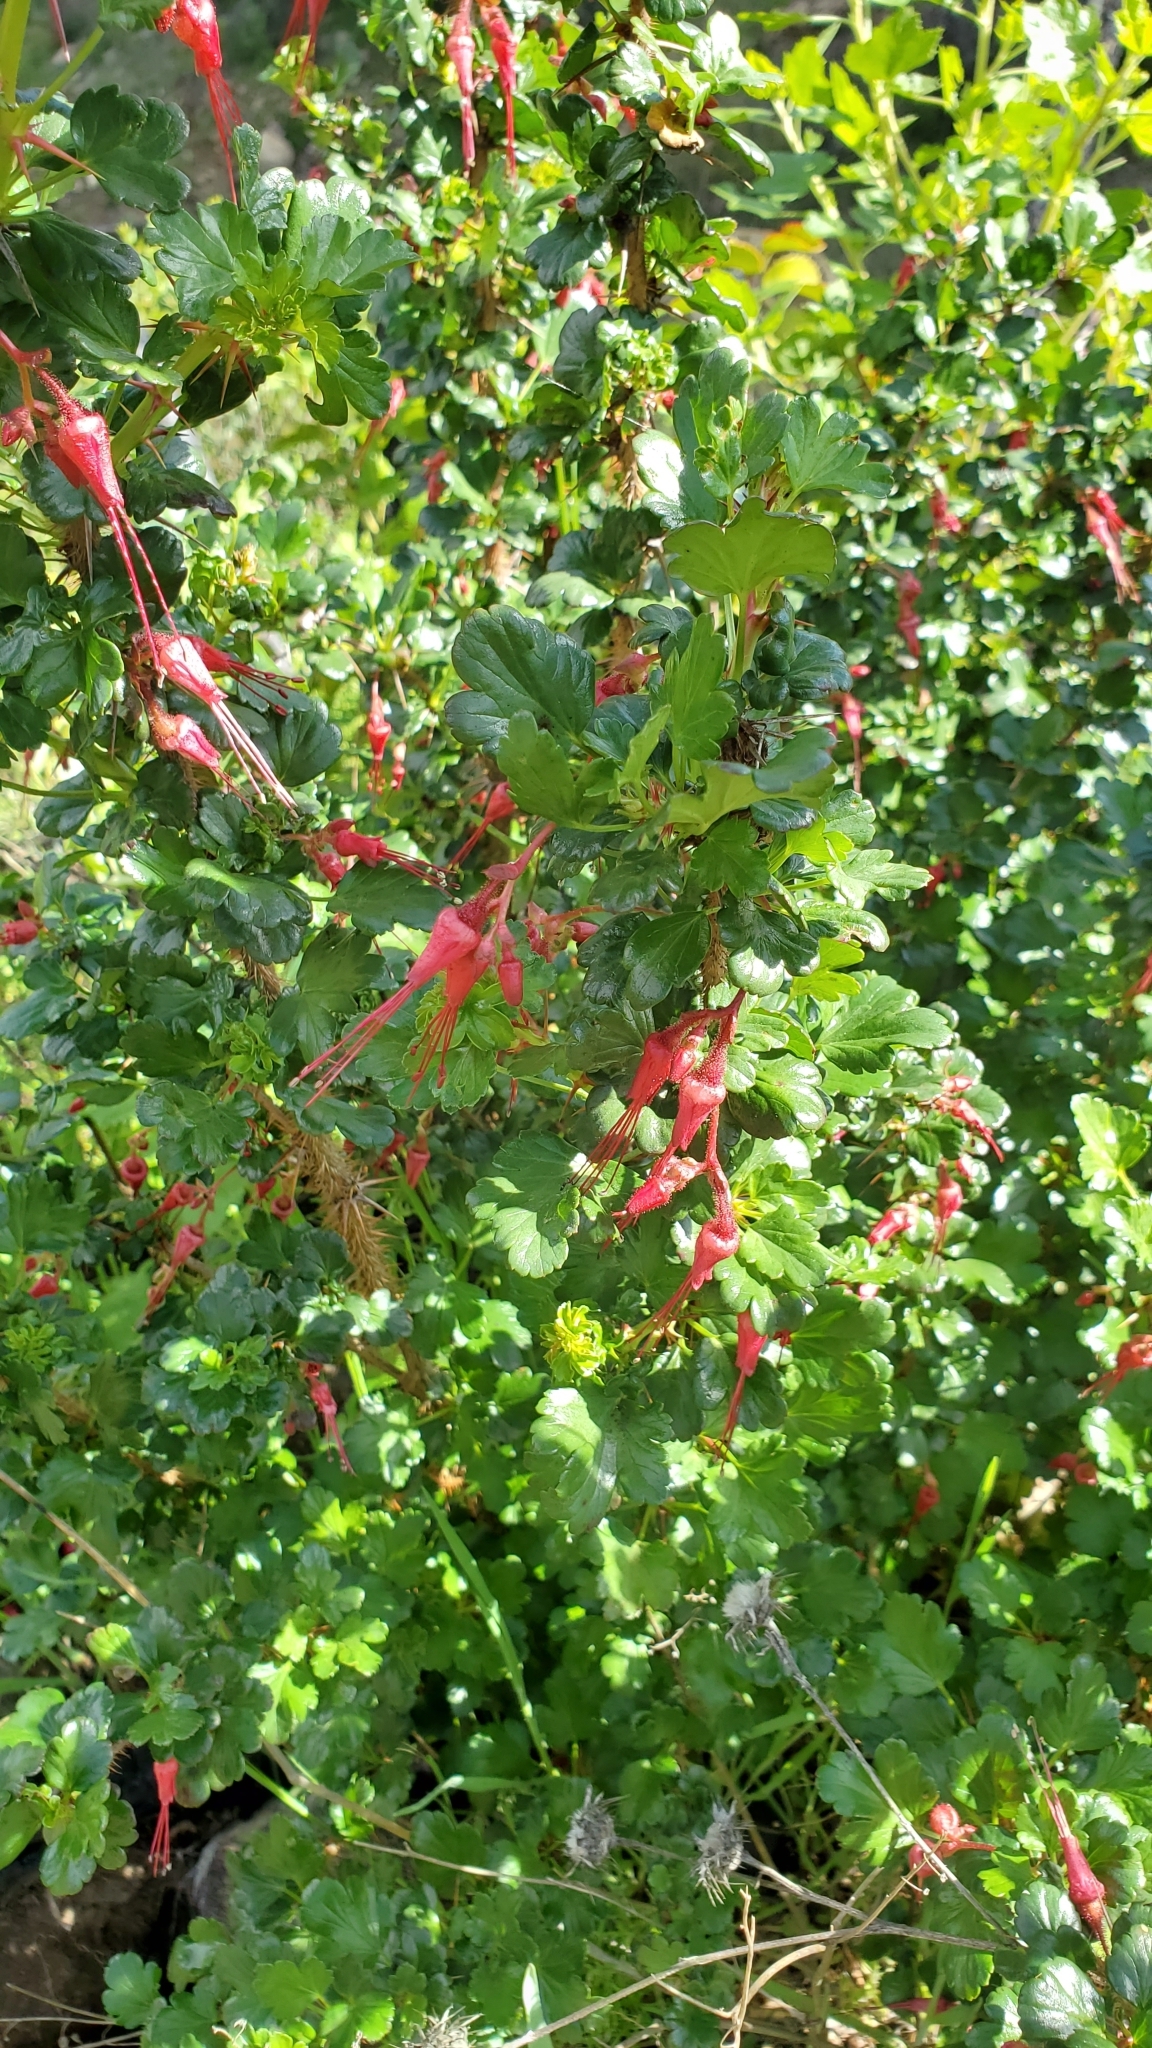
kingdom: Plantae
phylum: Tracheophyta
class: Magnoliopsida
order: Saxifragales
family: Grossulariaceae
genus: Ribes
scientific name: Ribes speciosum
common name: Fuchsia-flower gooseberry
